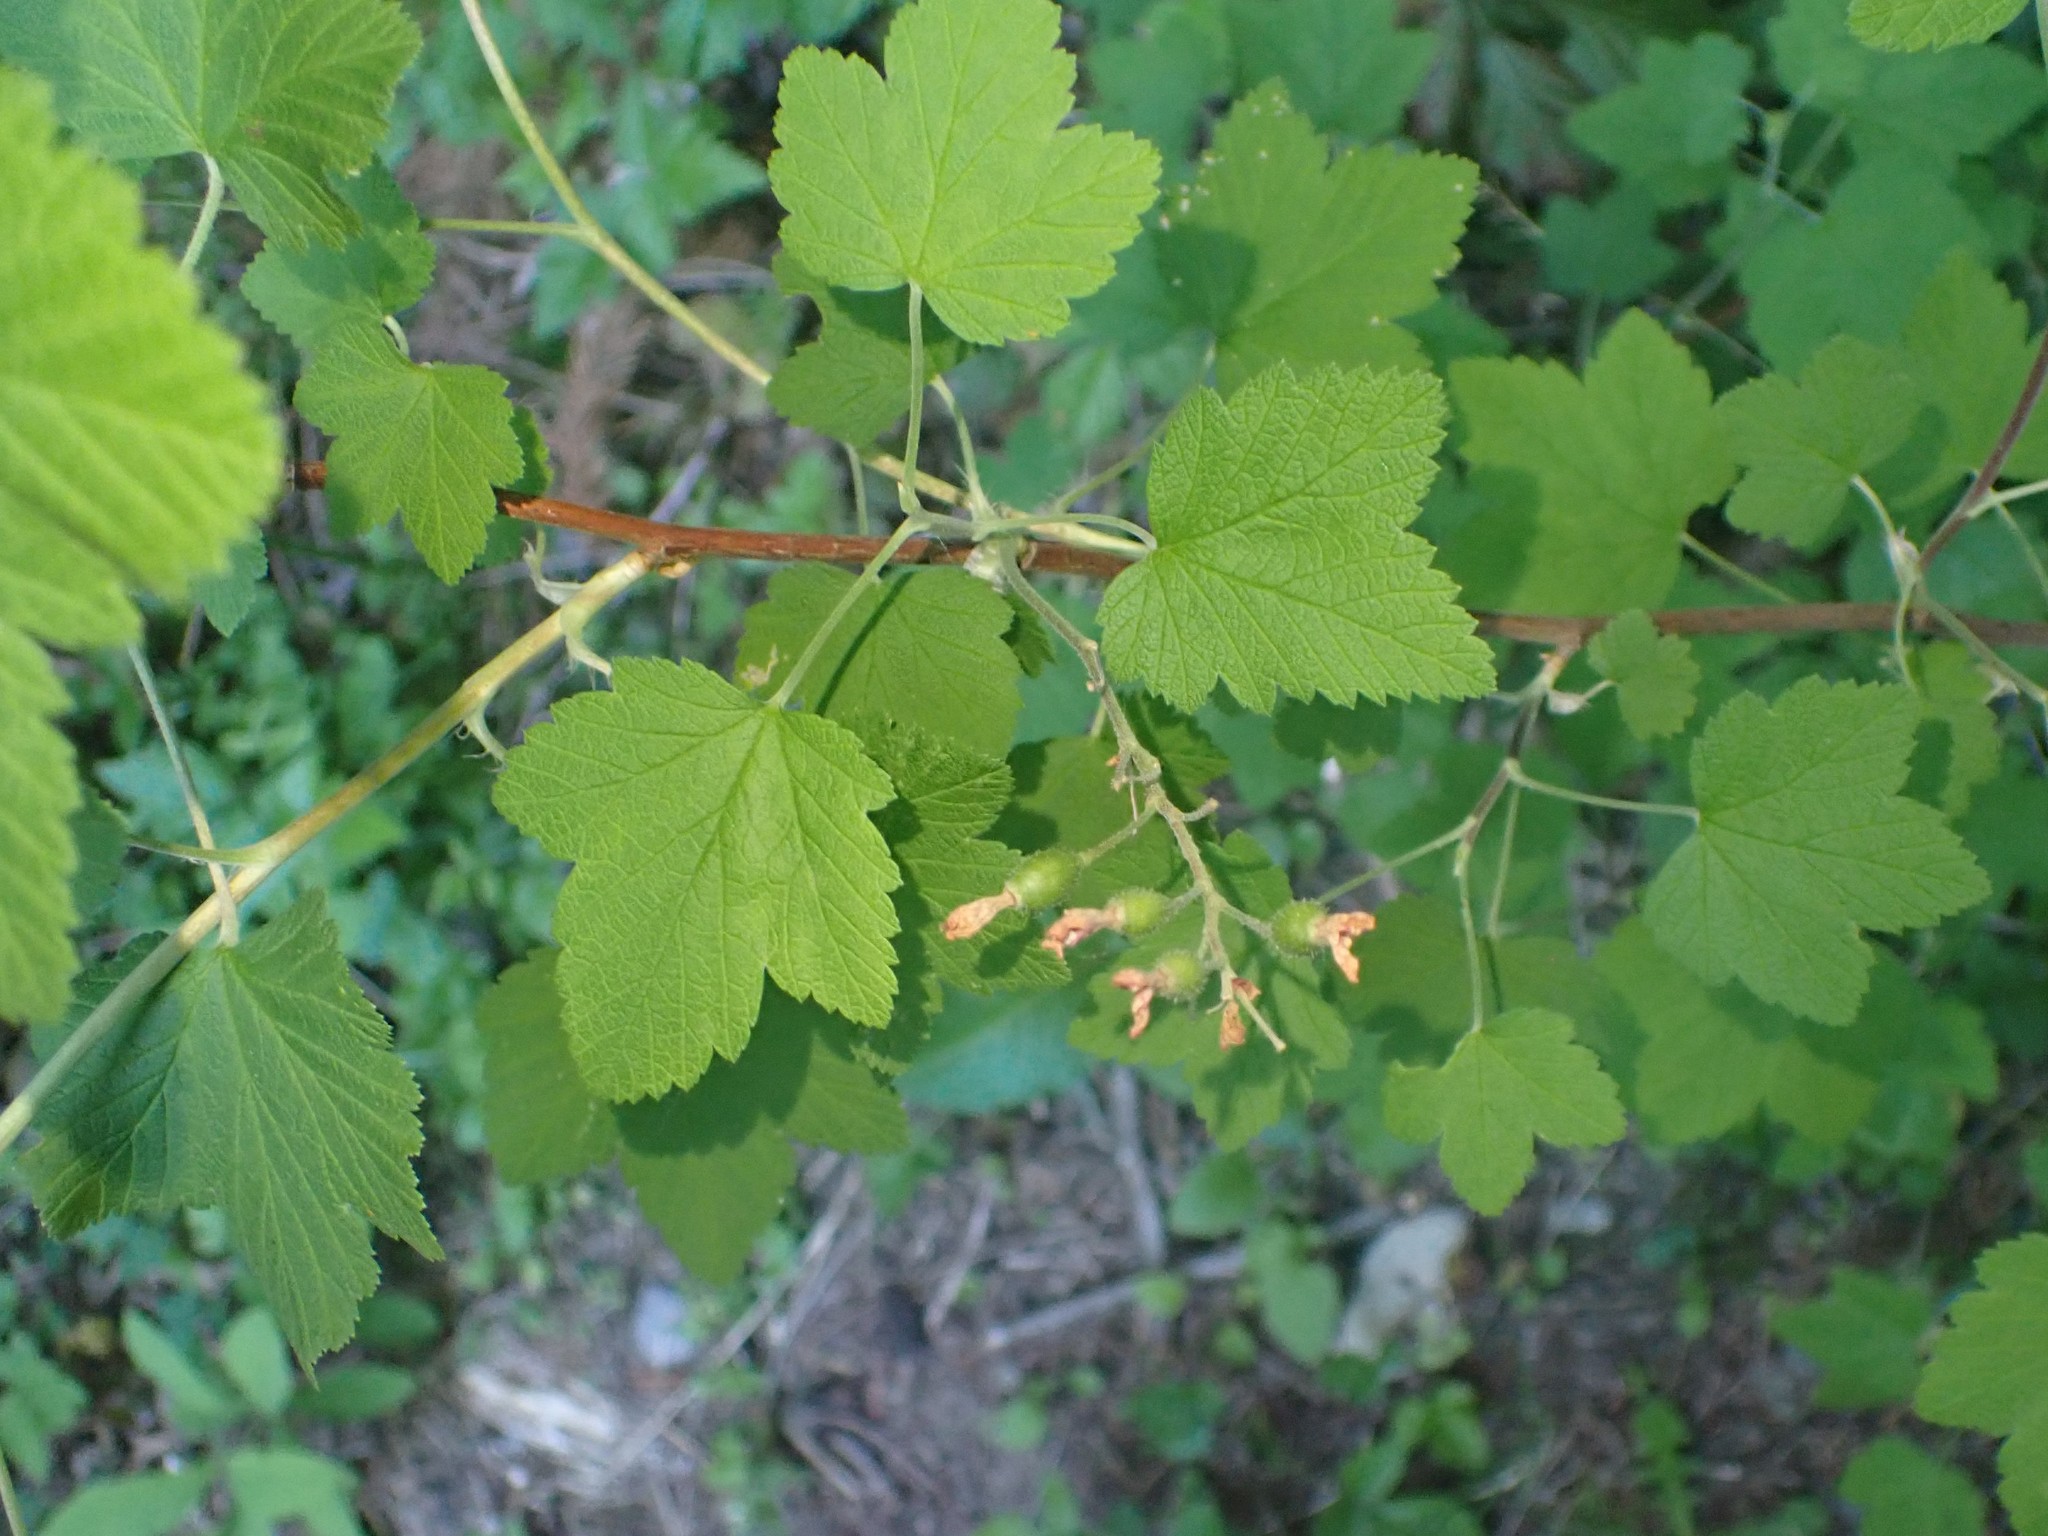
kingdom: Plantae
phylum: Tracheophyta
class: Magnoliopsida
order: Saxifragales
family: Grossulariaceae
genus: Ribes
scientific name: Ribes sanguineum
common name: Flowering currant
